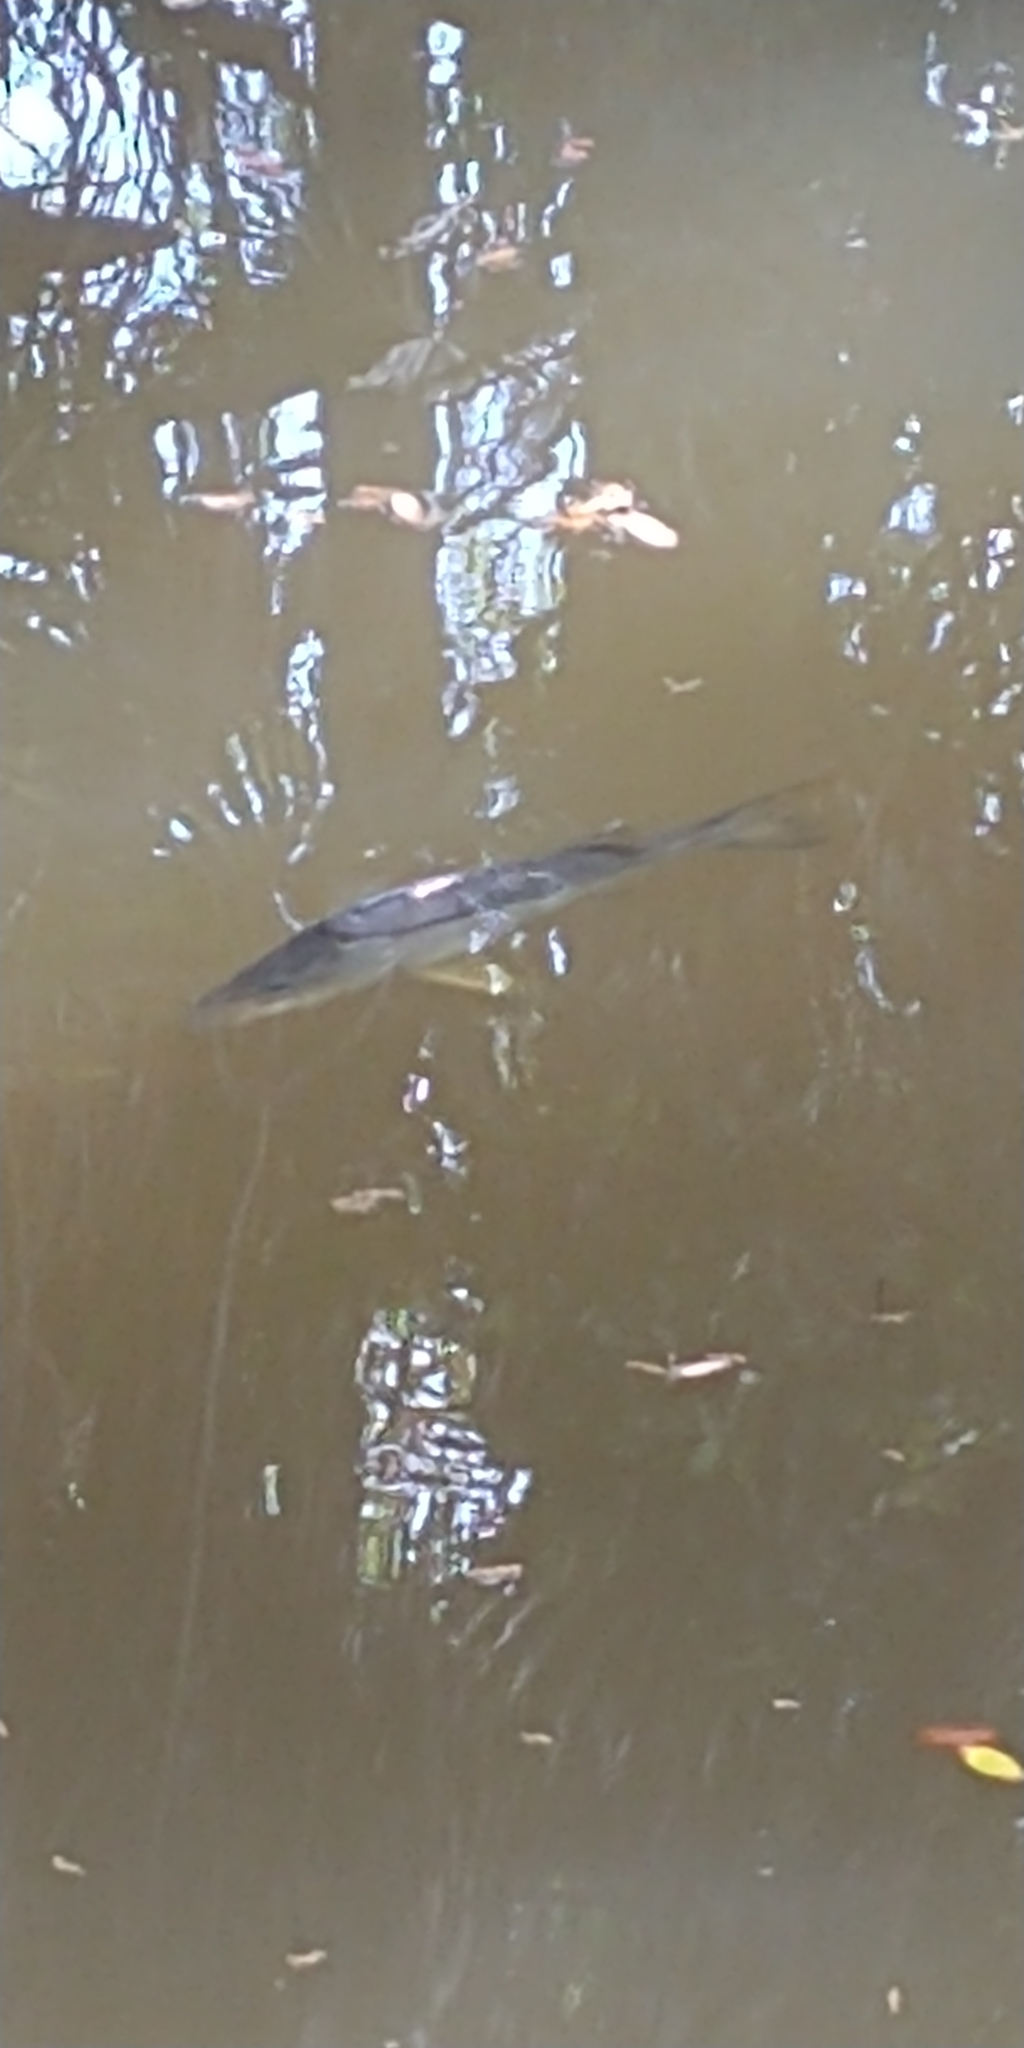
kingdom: Animalia
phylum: Chordata
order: Perciformes
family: Centropomidae
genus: Centropomus
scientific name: Centropomus undecimalis
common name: Snook
